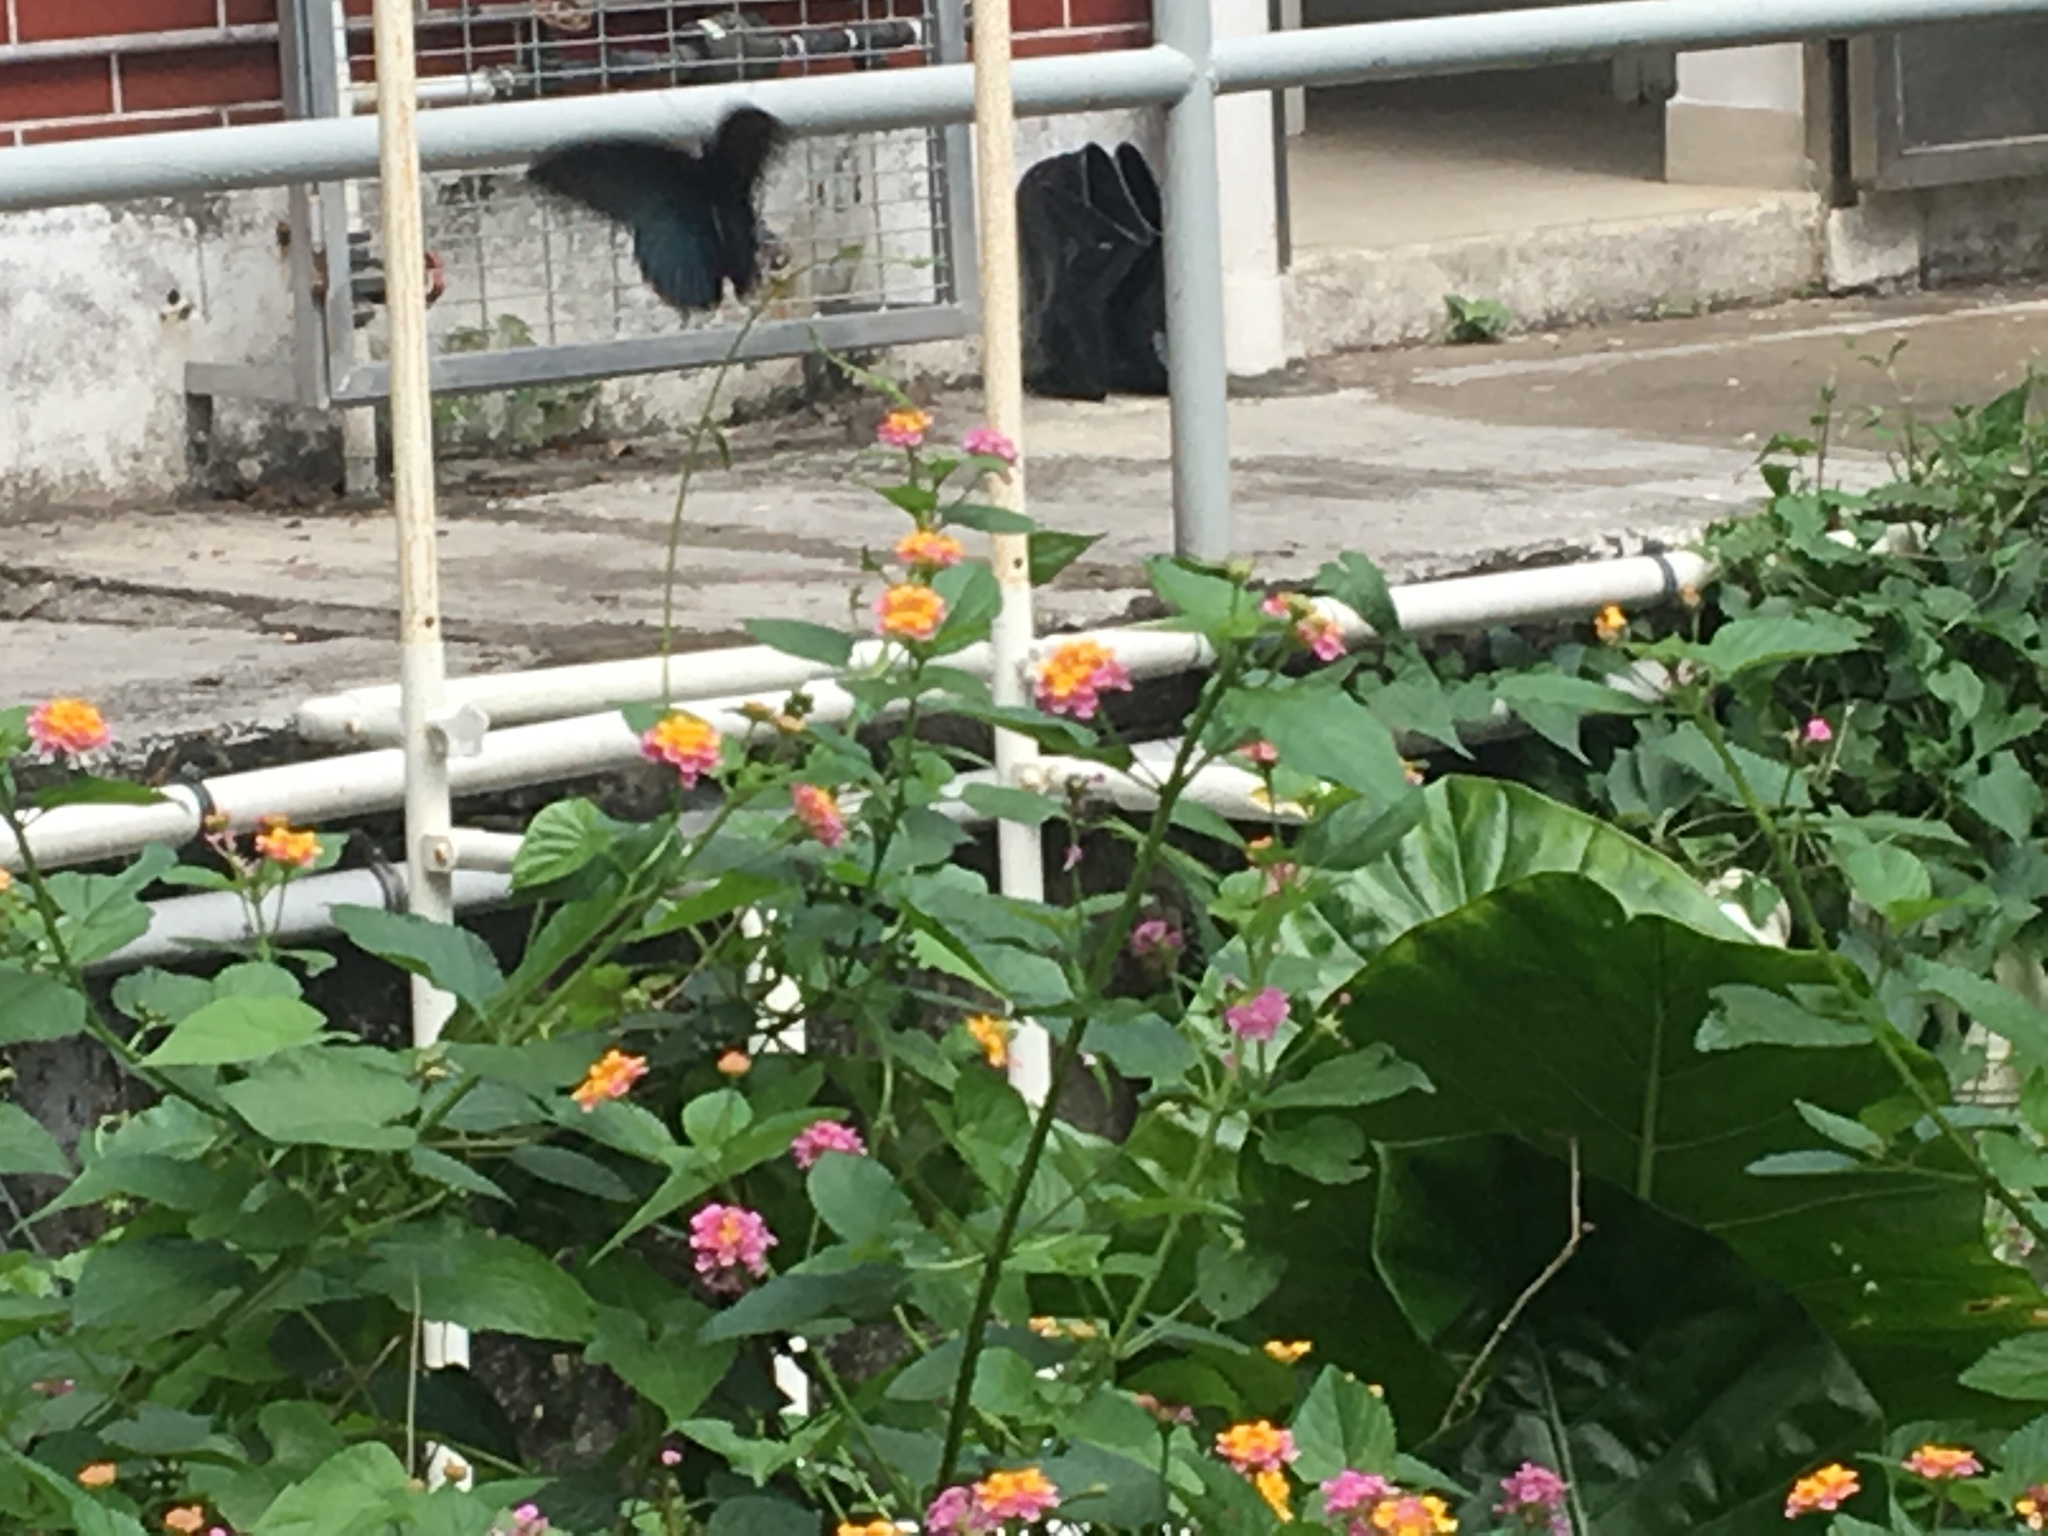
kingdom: Animalia
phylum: Arthropoda
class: Insecta
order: Lepidoptera
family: Papilionidae
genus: Papilio
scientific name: Papilio memnon
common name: Great mormon
